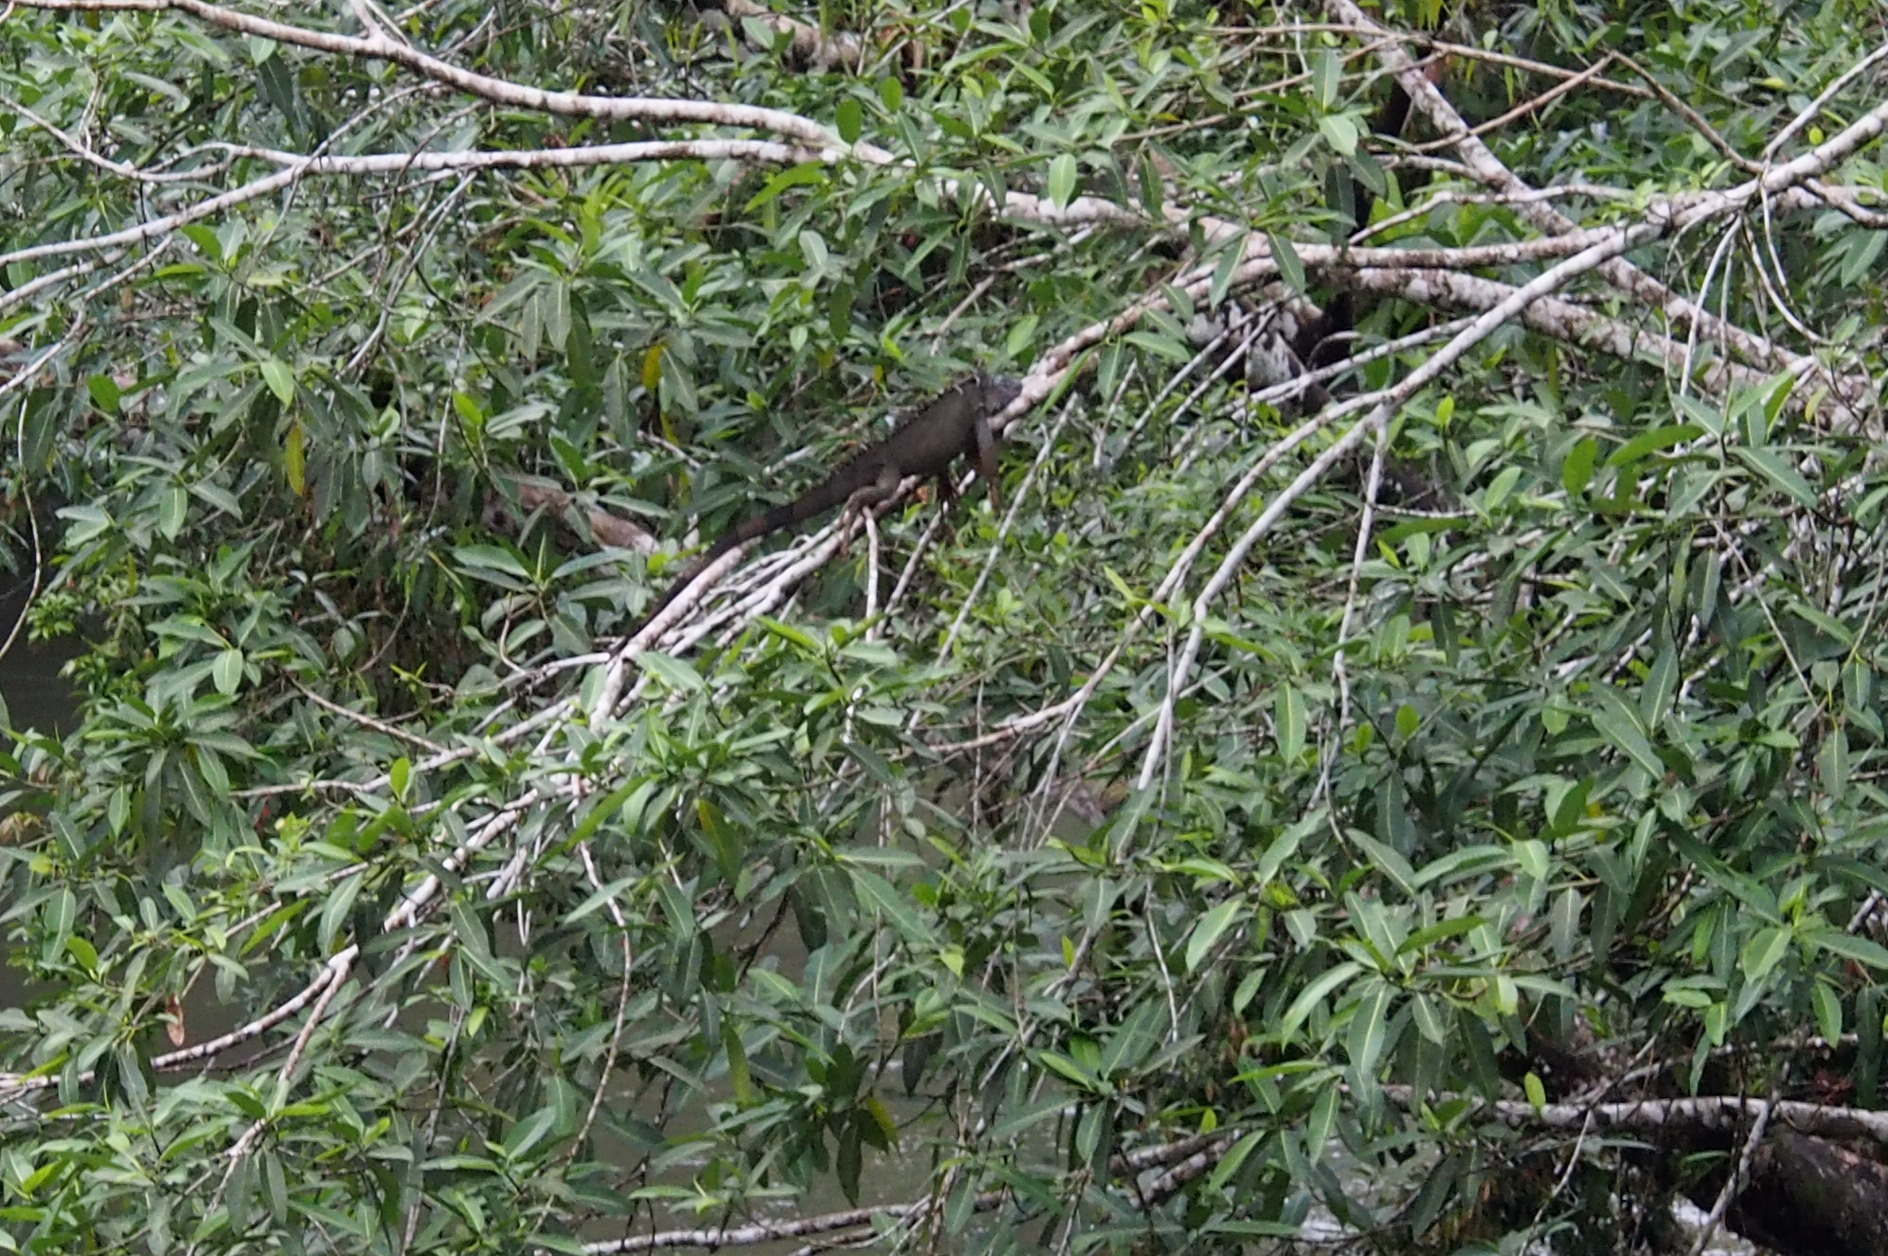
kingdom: Animalia
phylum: Chordata
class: Squamata
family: Iguanidae
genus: Iguana
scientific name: Iguana iguana
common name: Green iguana
